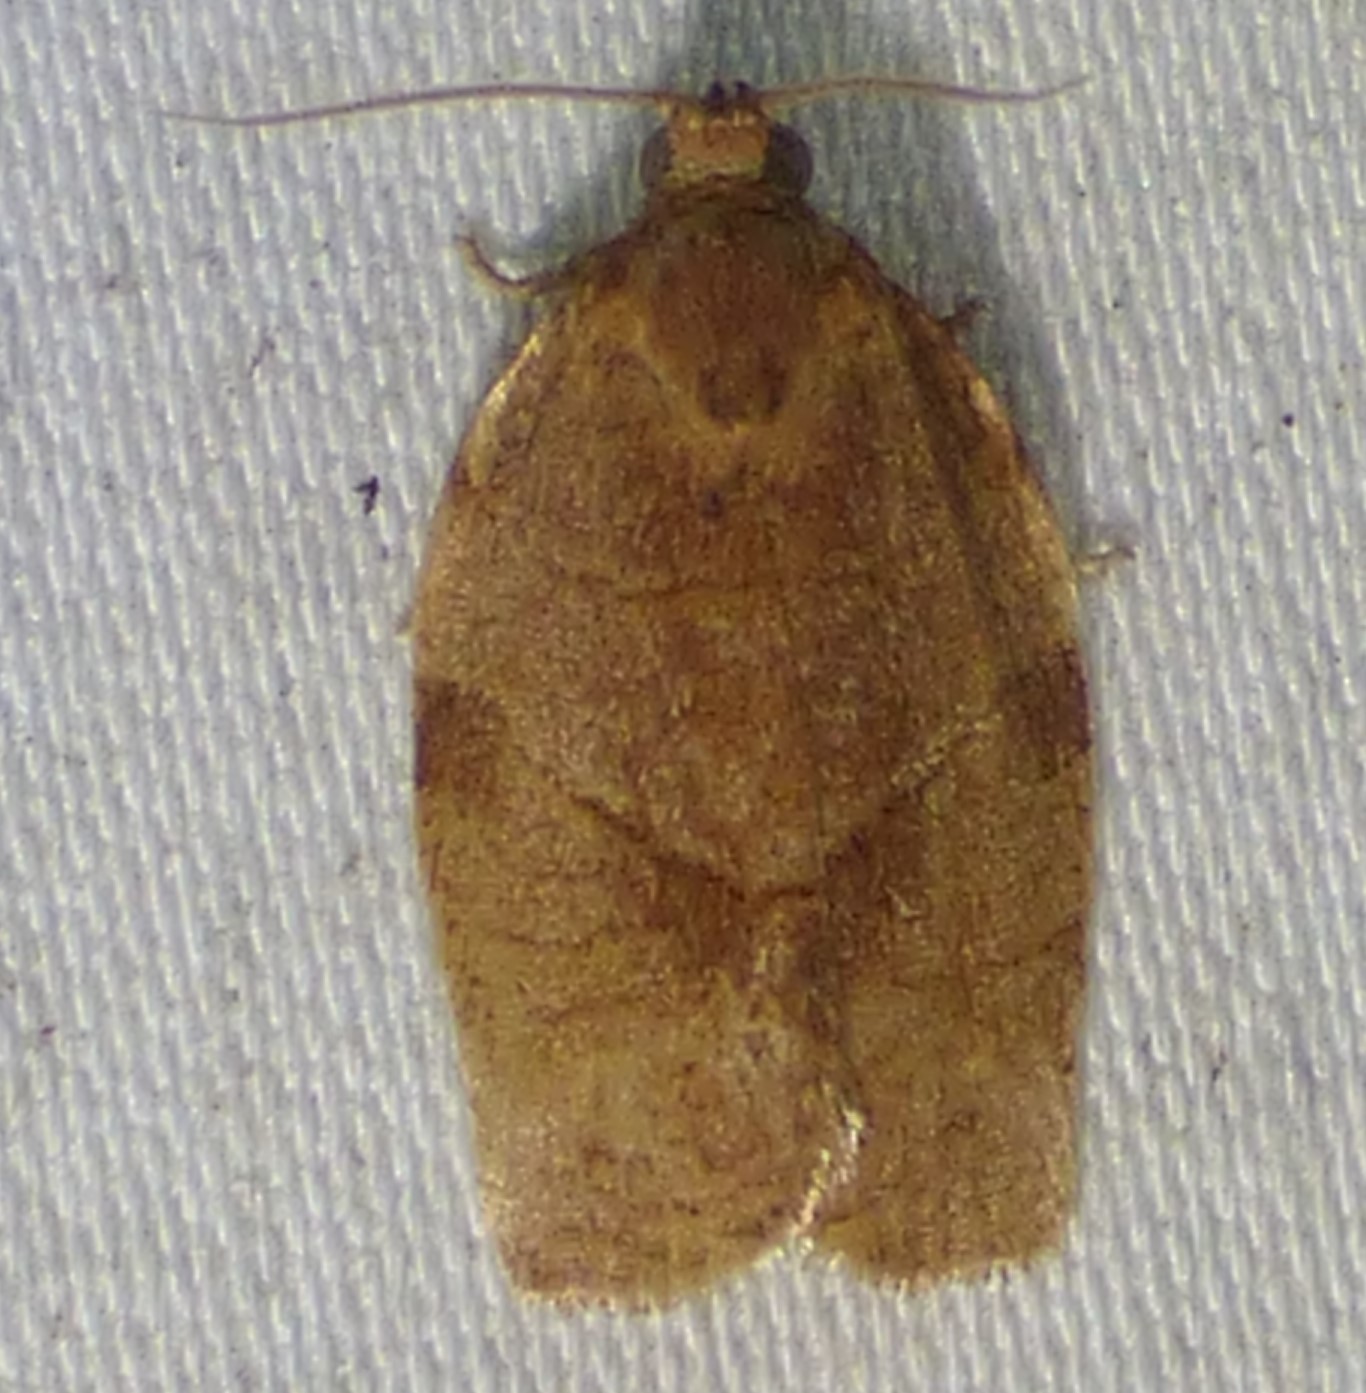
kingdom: Animalia
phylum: Arthropoda
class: Insecta
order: Lepidoptera
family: Tortricidae
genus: Choristoneura
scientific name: Choristoneura rosaceana
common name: Oblique-banded leafroller moth
